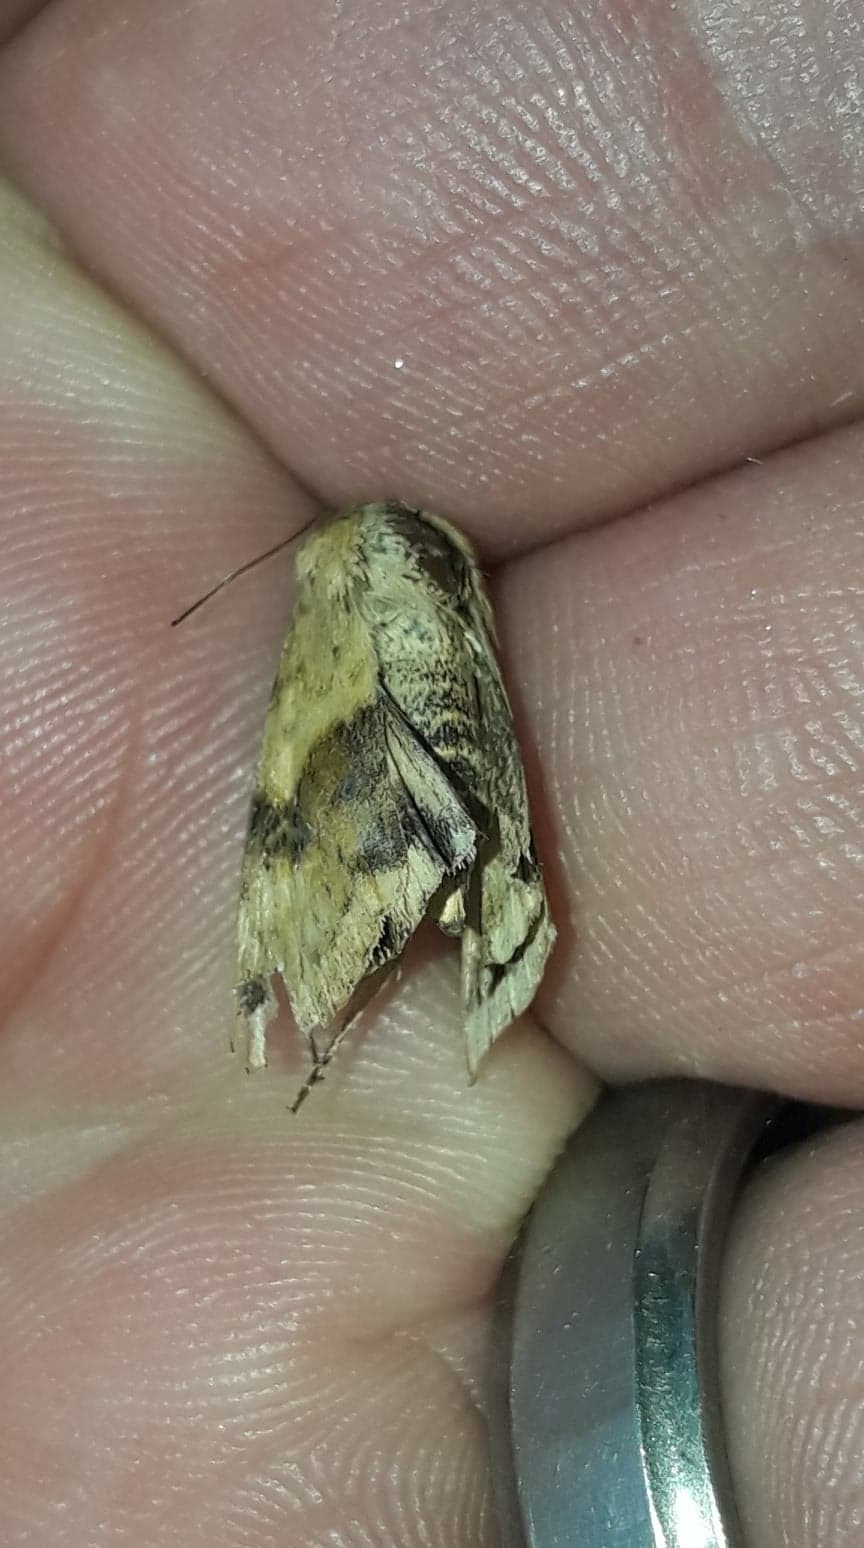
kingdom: Animalia
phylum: Arthropoda
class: Insecta
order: Lepidoptera
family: Noctuidae
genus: Heliothis
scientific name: Heliothis viriplaca
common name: Marbled clover
